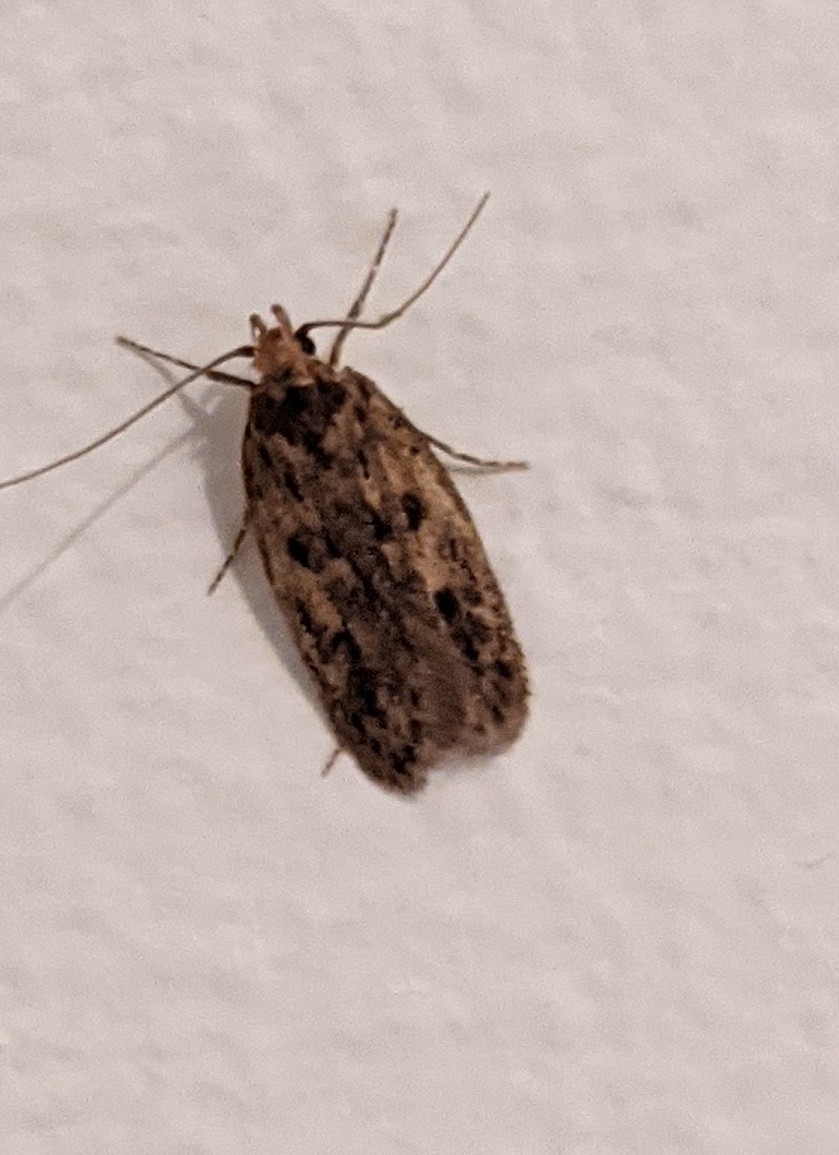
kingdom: Animalia
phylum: Arthropoda
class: Insecta
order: Lepidoptera
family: Oecophoridae
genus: Hofmannophila
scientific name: Hofmannophila pseudospretella
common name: Brown house moth
